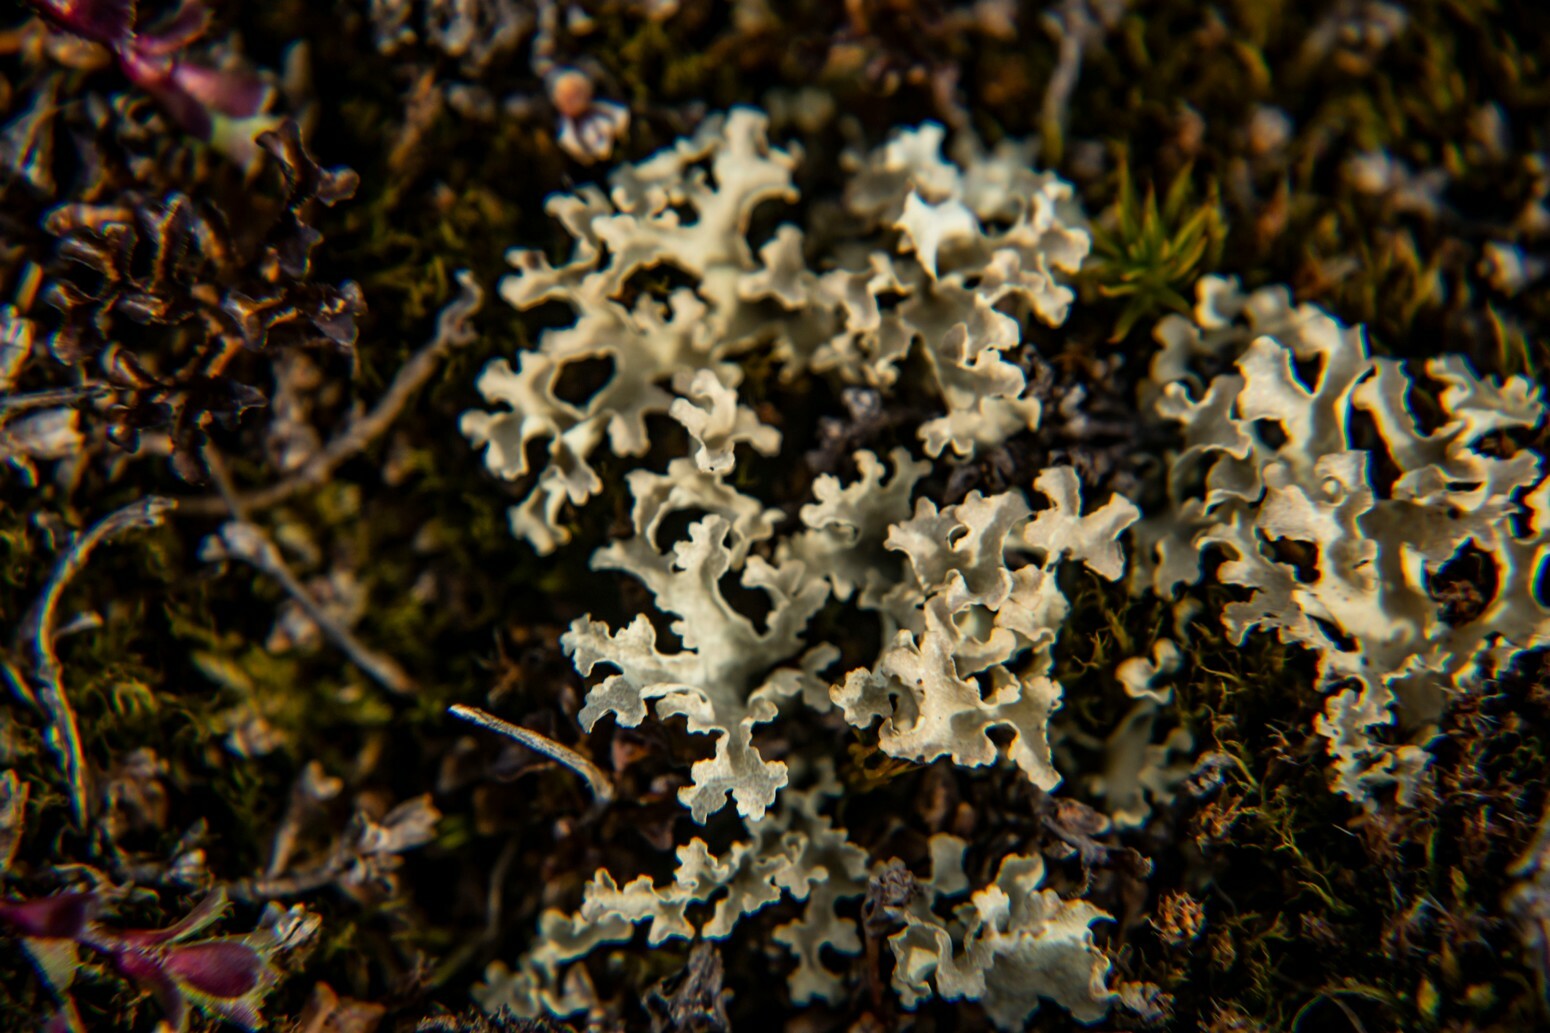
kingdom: Fungi
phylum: Ascomycota
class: Lecanoromycetes
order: Lecanorales
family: Parmeliaceae
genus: Nephromopsis
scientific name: Nephromopsis nivalis
